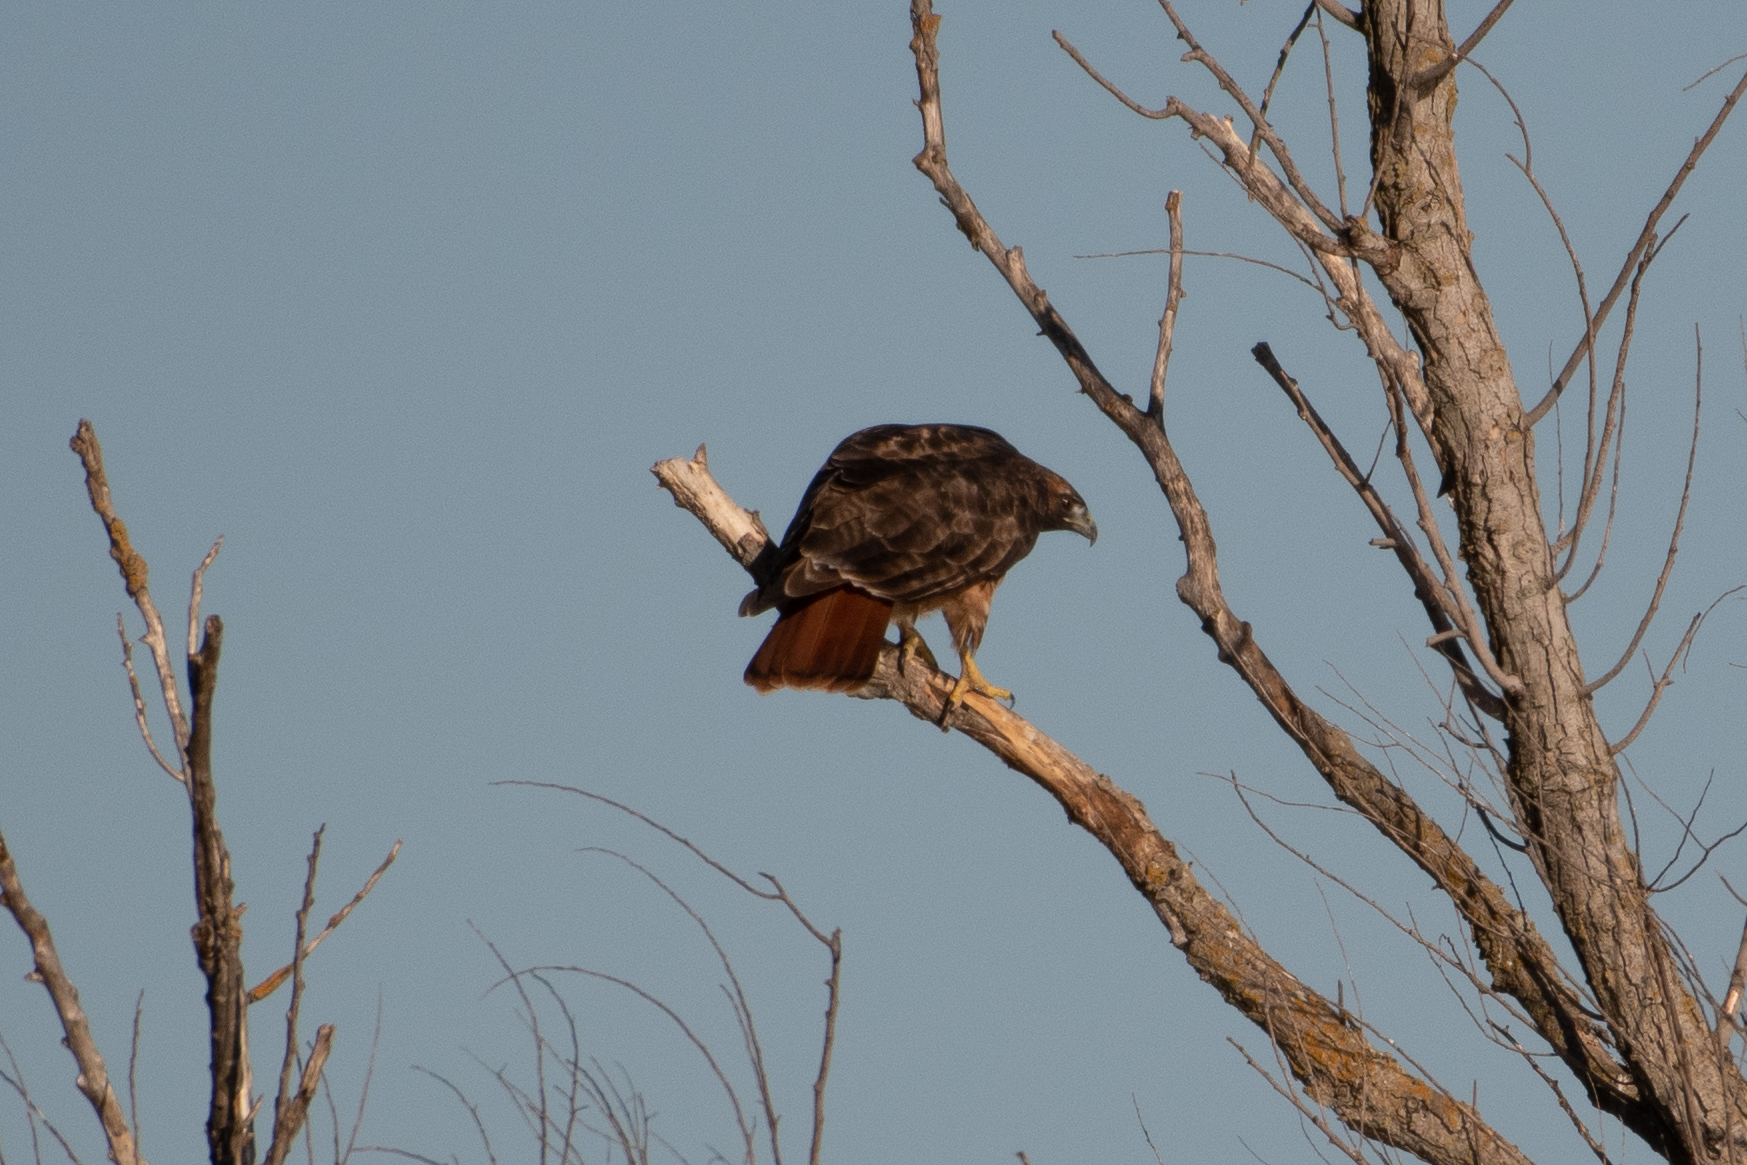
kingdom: Animalia
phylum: Chordata
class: Aves
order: Accipitriformes
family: Accipitridae
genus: Buteo
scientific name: Buteo jamaicensis
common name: Red-tailed hawk
